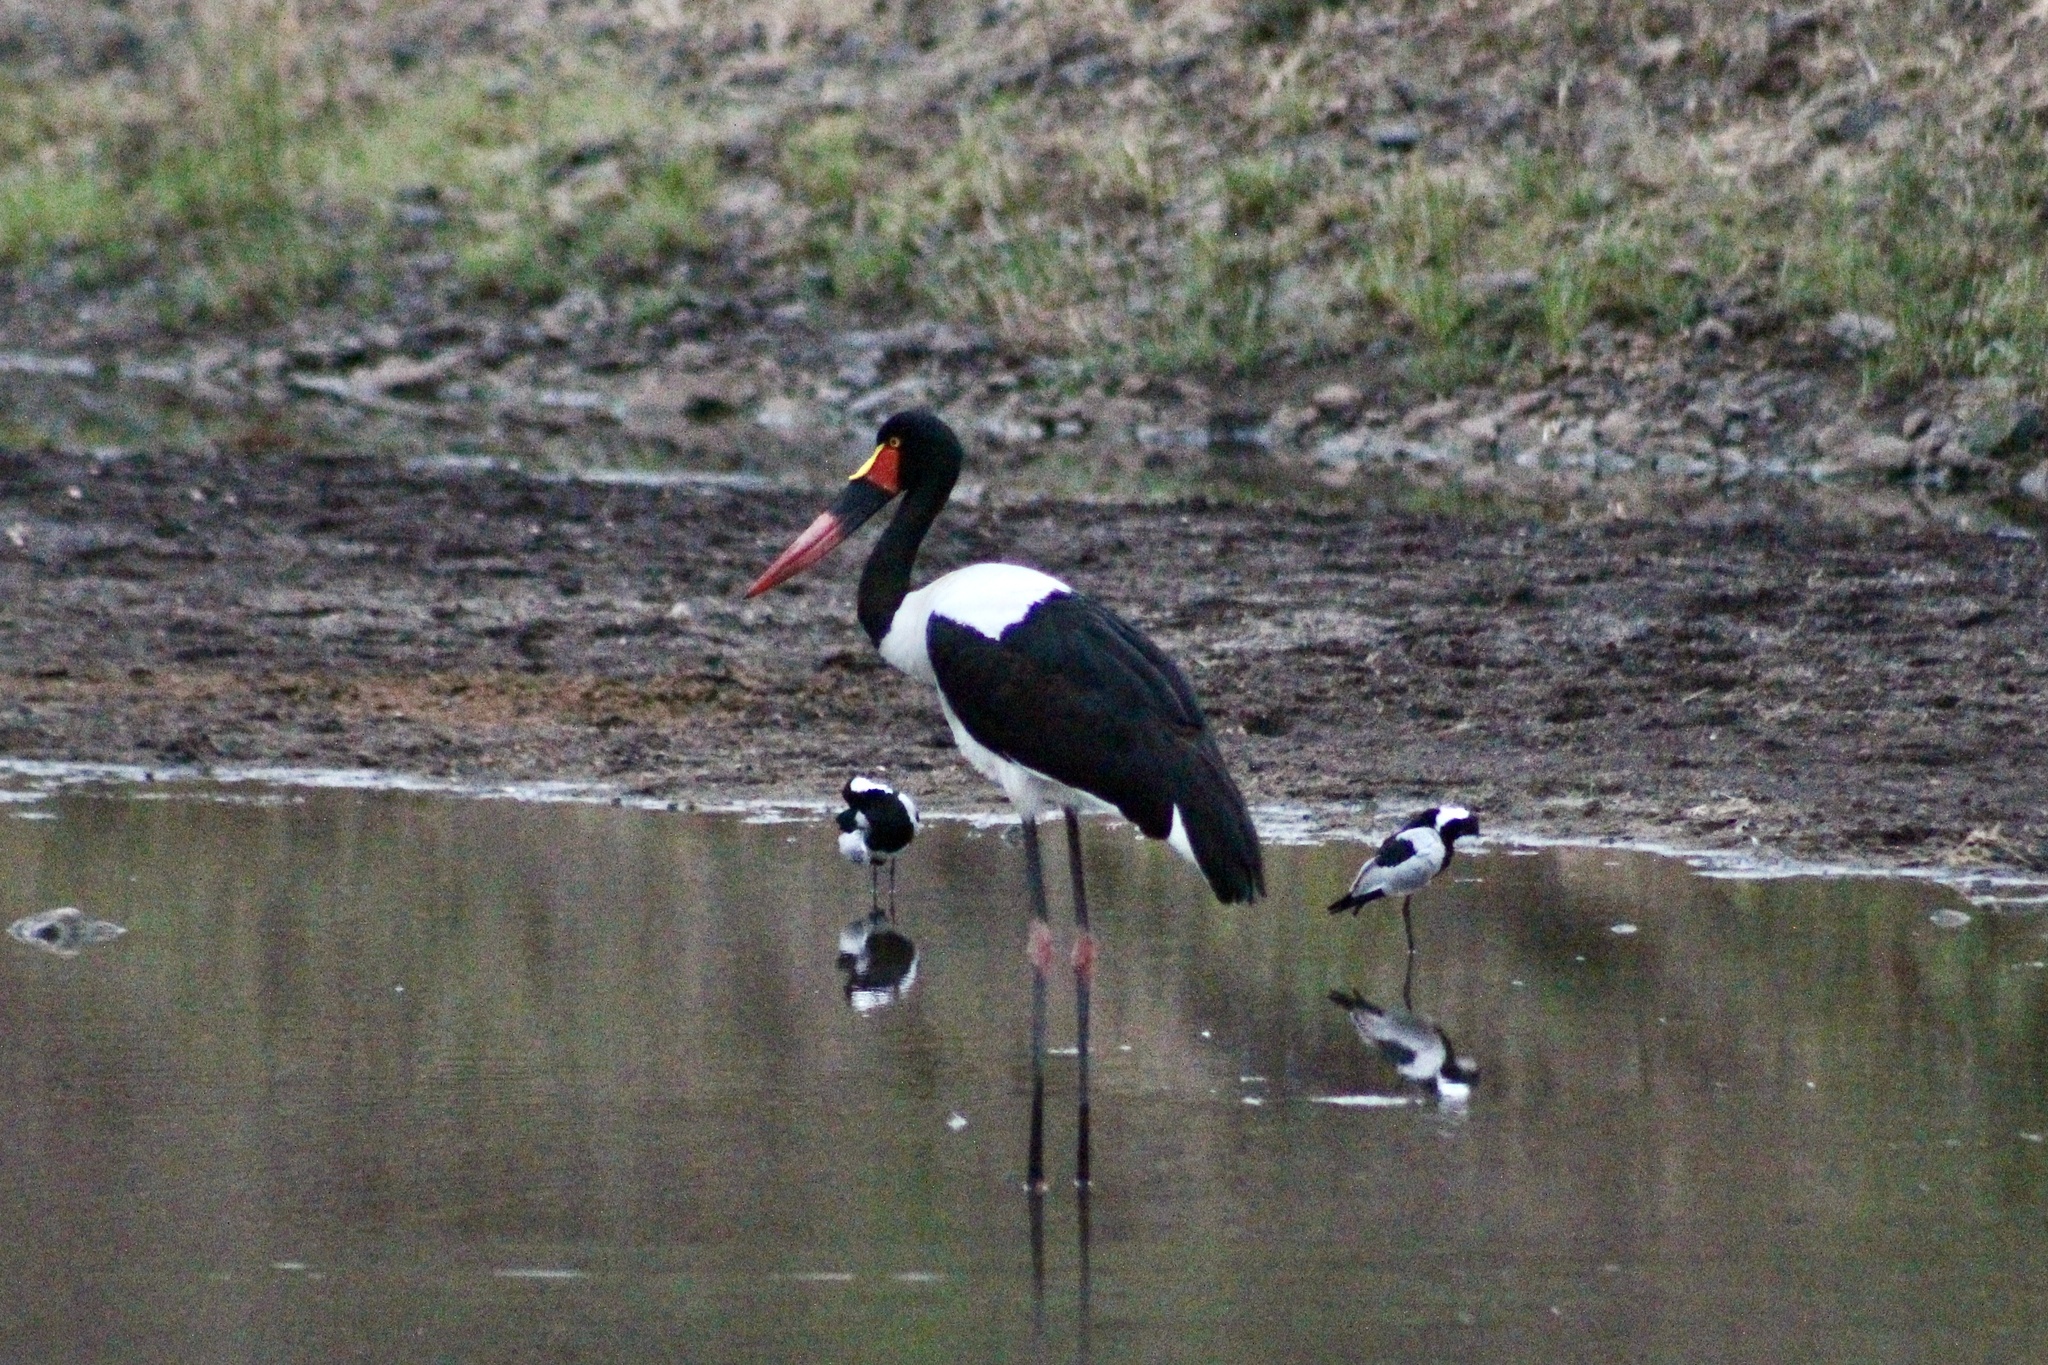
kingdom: Animalia
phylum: Chordata
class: Aves
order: Ciconiiformes
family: Ciconiidae
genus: Ephippiorhynchus
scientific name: Ephippiorhynchus senegalensis
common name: Saddle-billed stork
